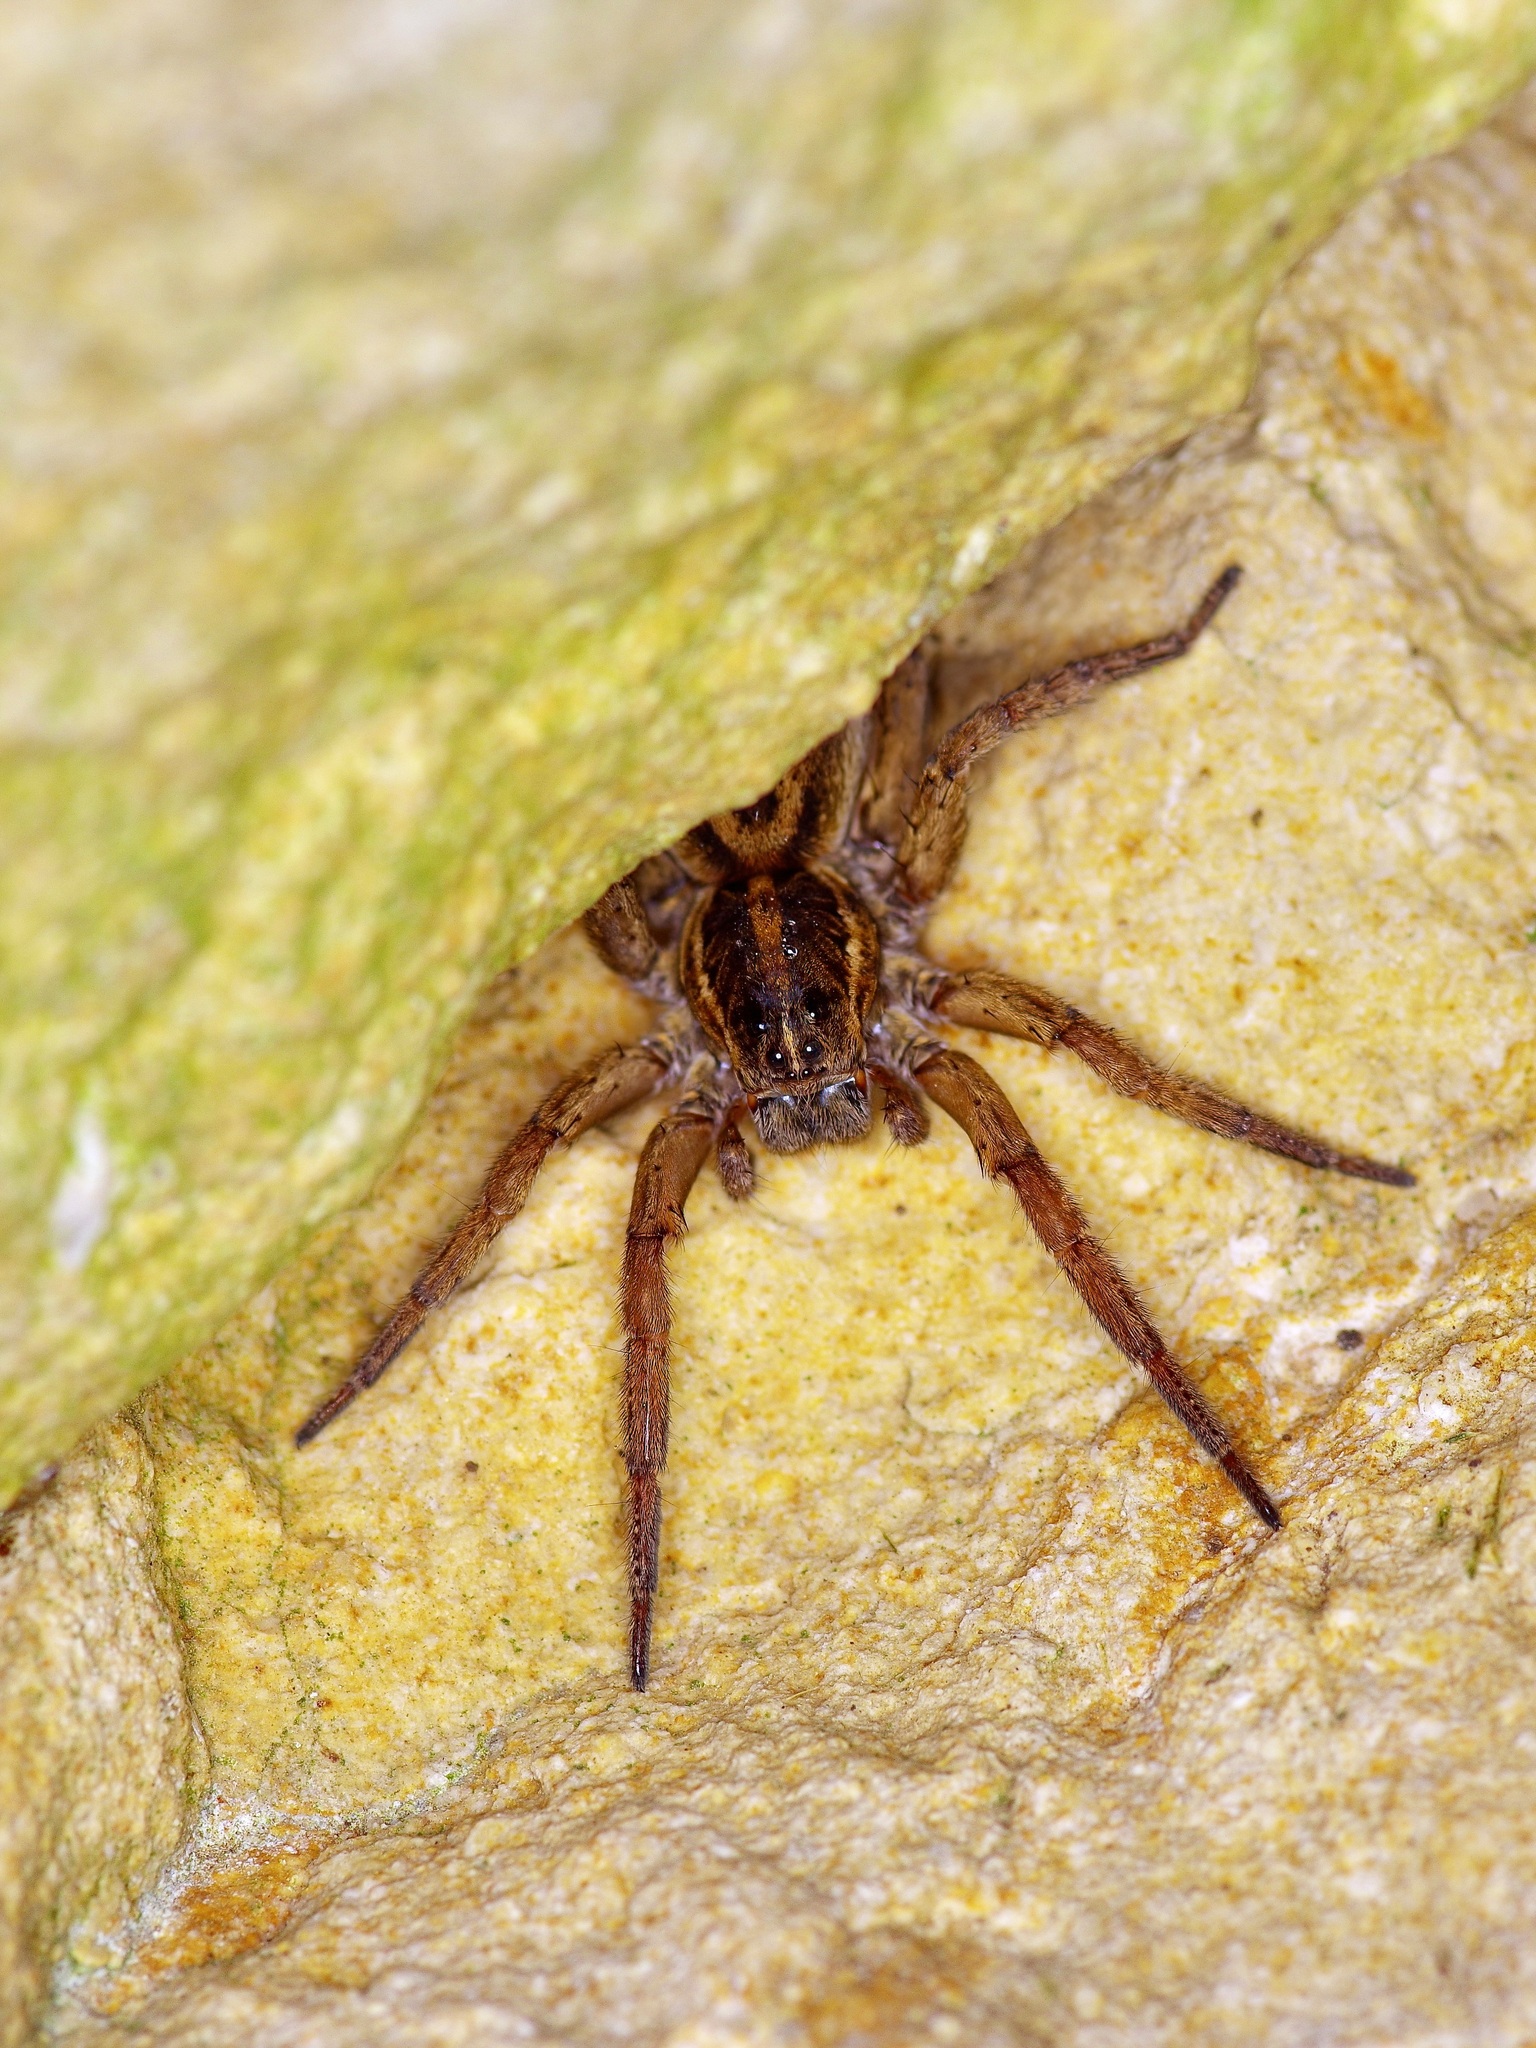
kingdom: Animalia
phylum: Arthropoda
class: Arachnida
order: Araneae
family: Lycosidae
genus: Tigrosa
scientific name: Tigrosa annexa
